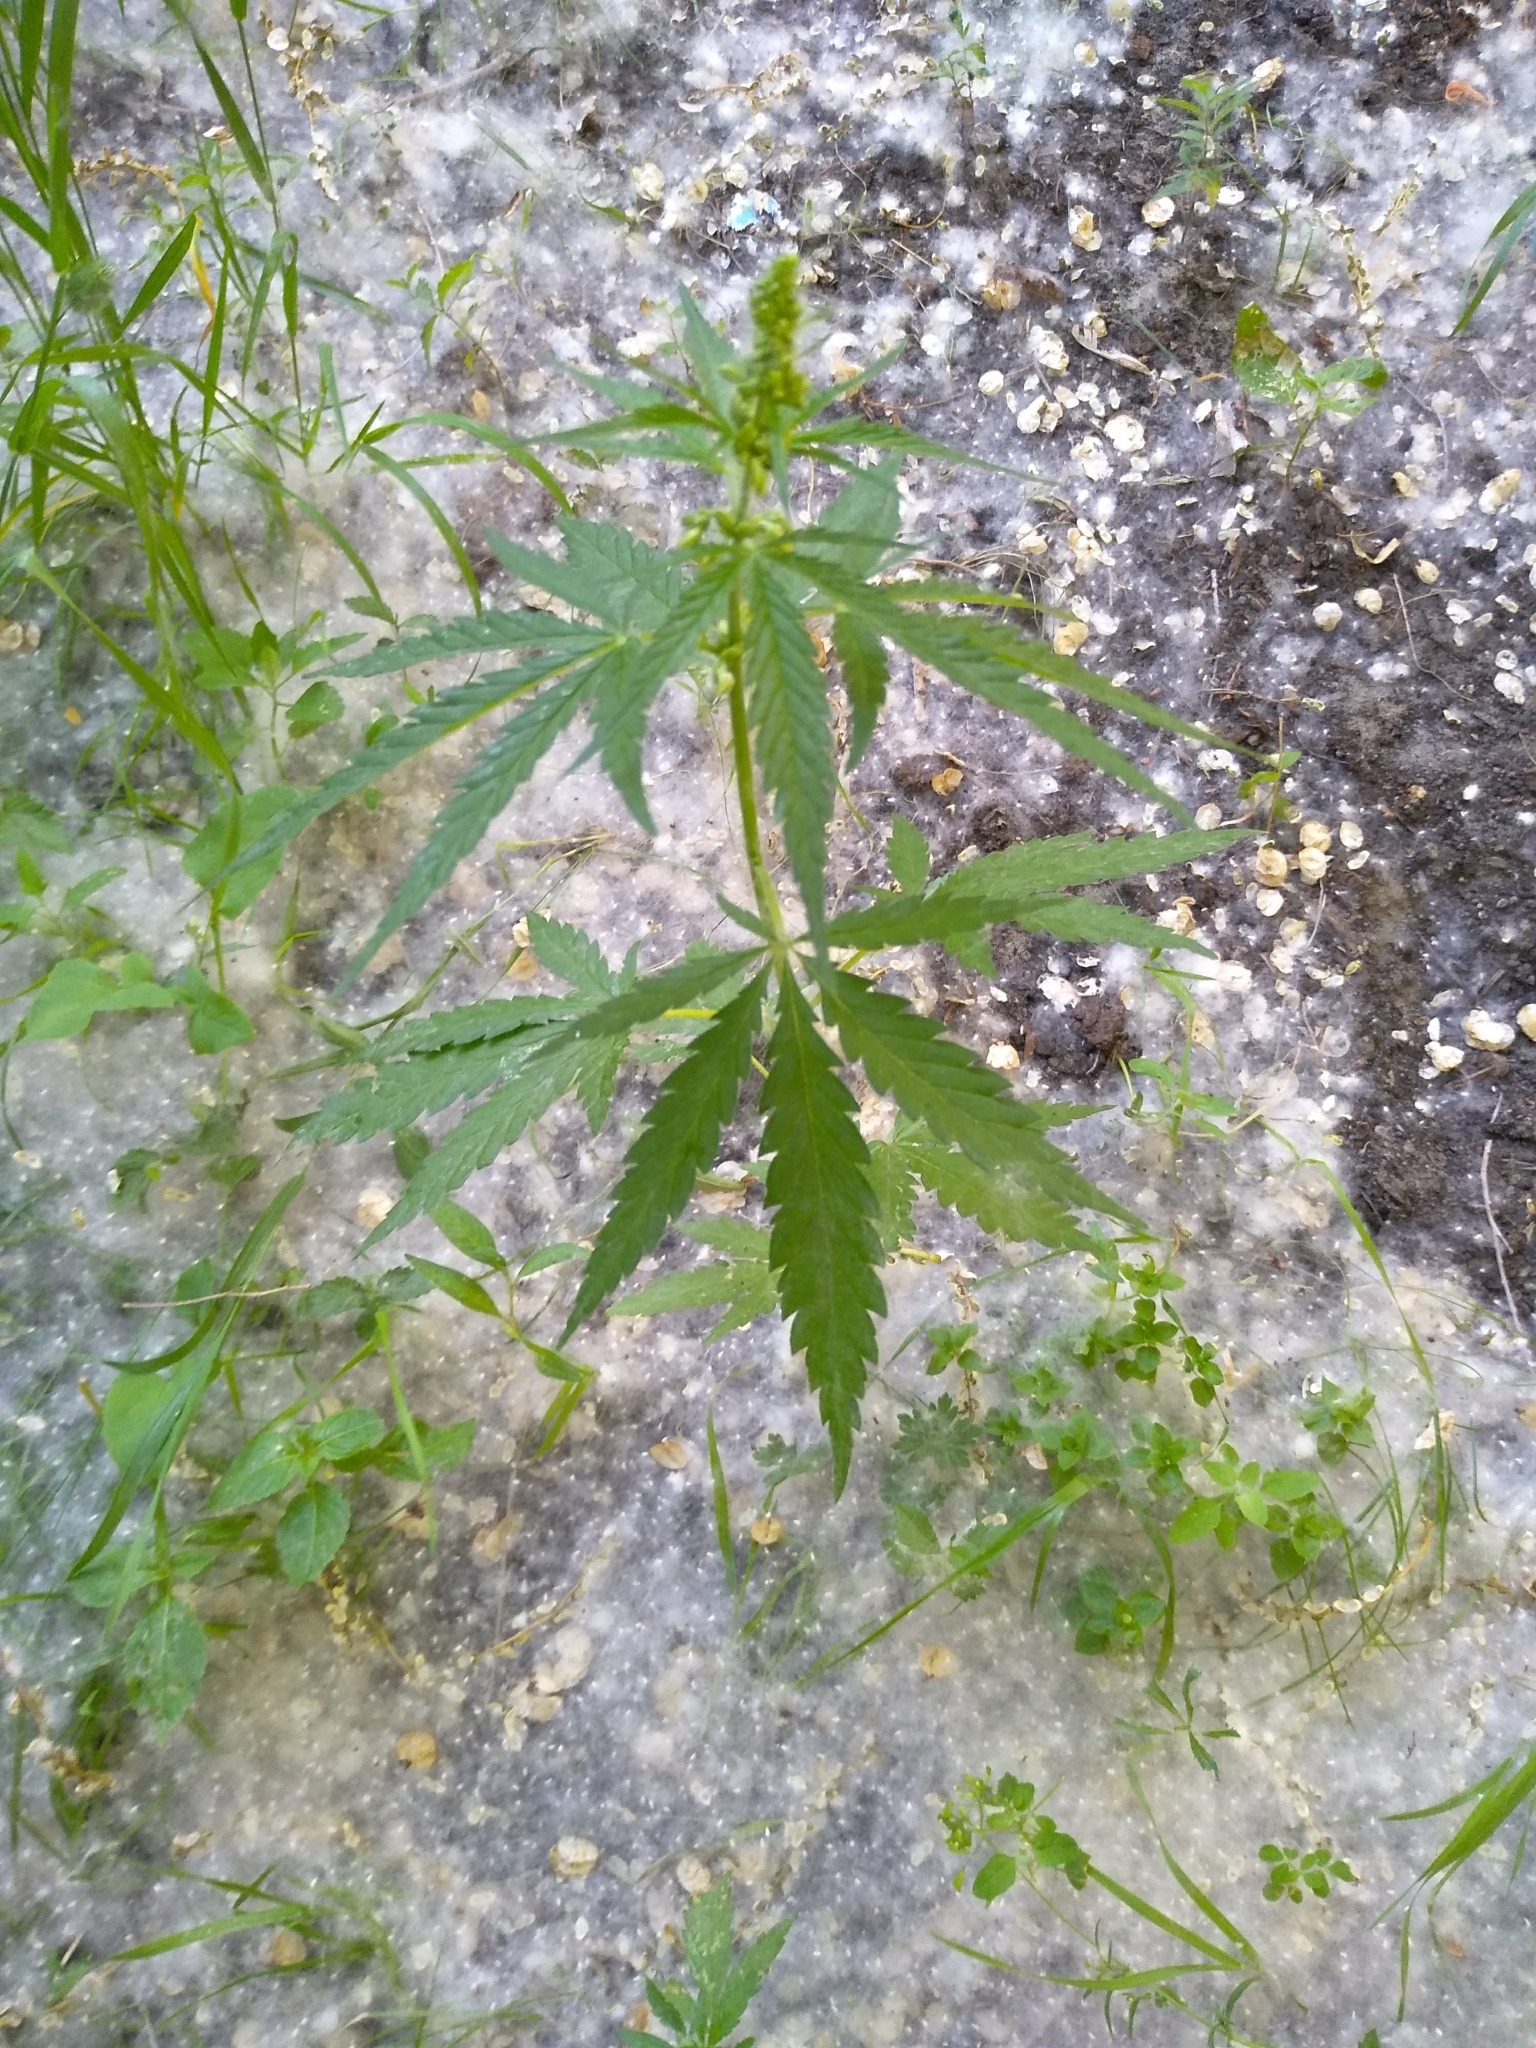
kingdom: Plantae
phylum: Tracheophyta
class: Magnoliopsida
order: Rosales
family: Cannabaceae
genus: Cannabis
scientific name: Cannabis sativa
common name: Hemp
